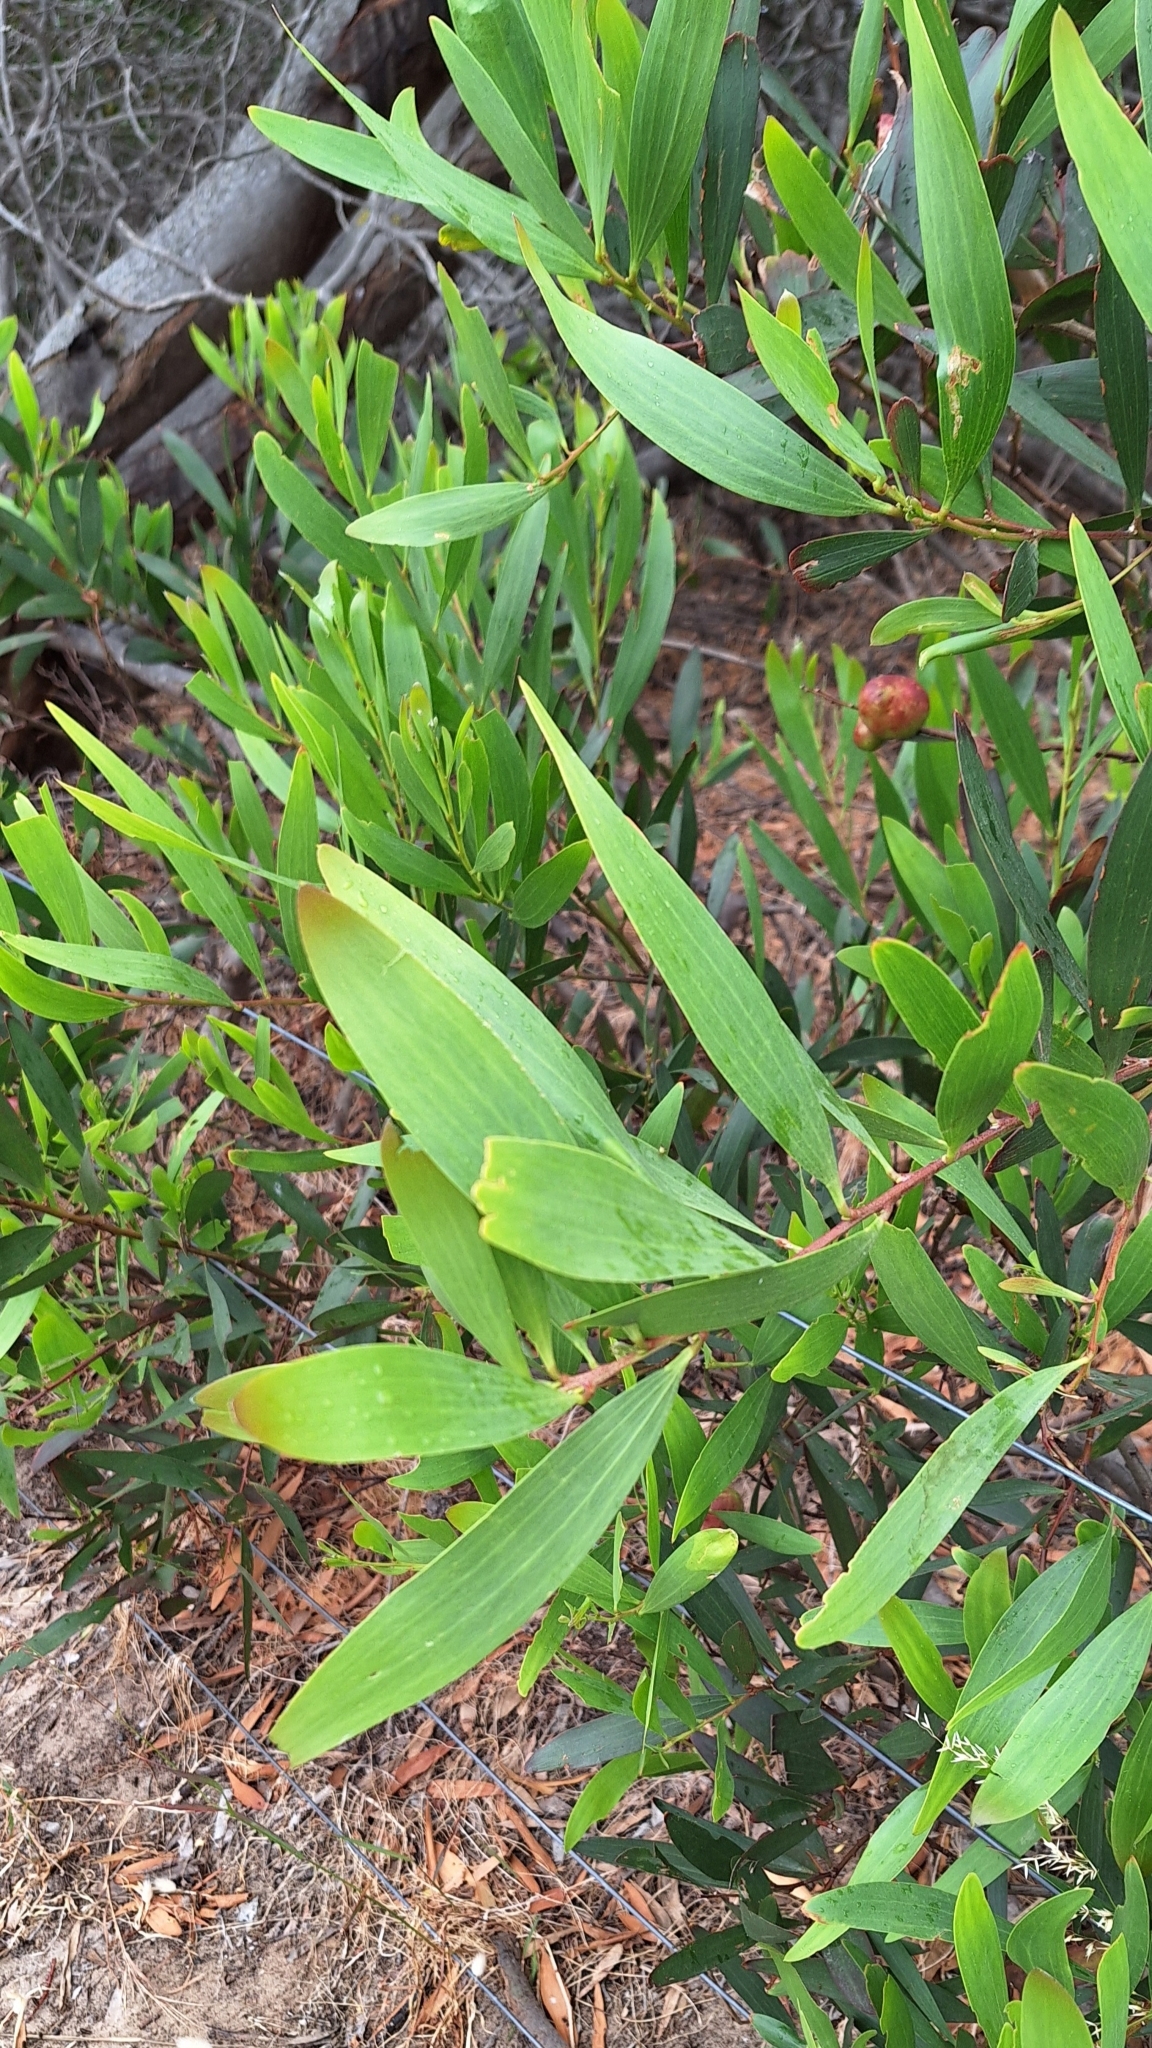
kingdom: Plantae
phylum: Tracheophyta
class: Magnoliopsida
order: Fabales
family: Fabaceae
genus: Acacia
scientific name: Acacia longifolia
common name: Sydney golden wattle
